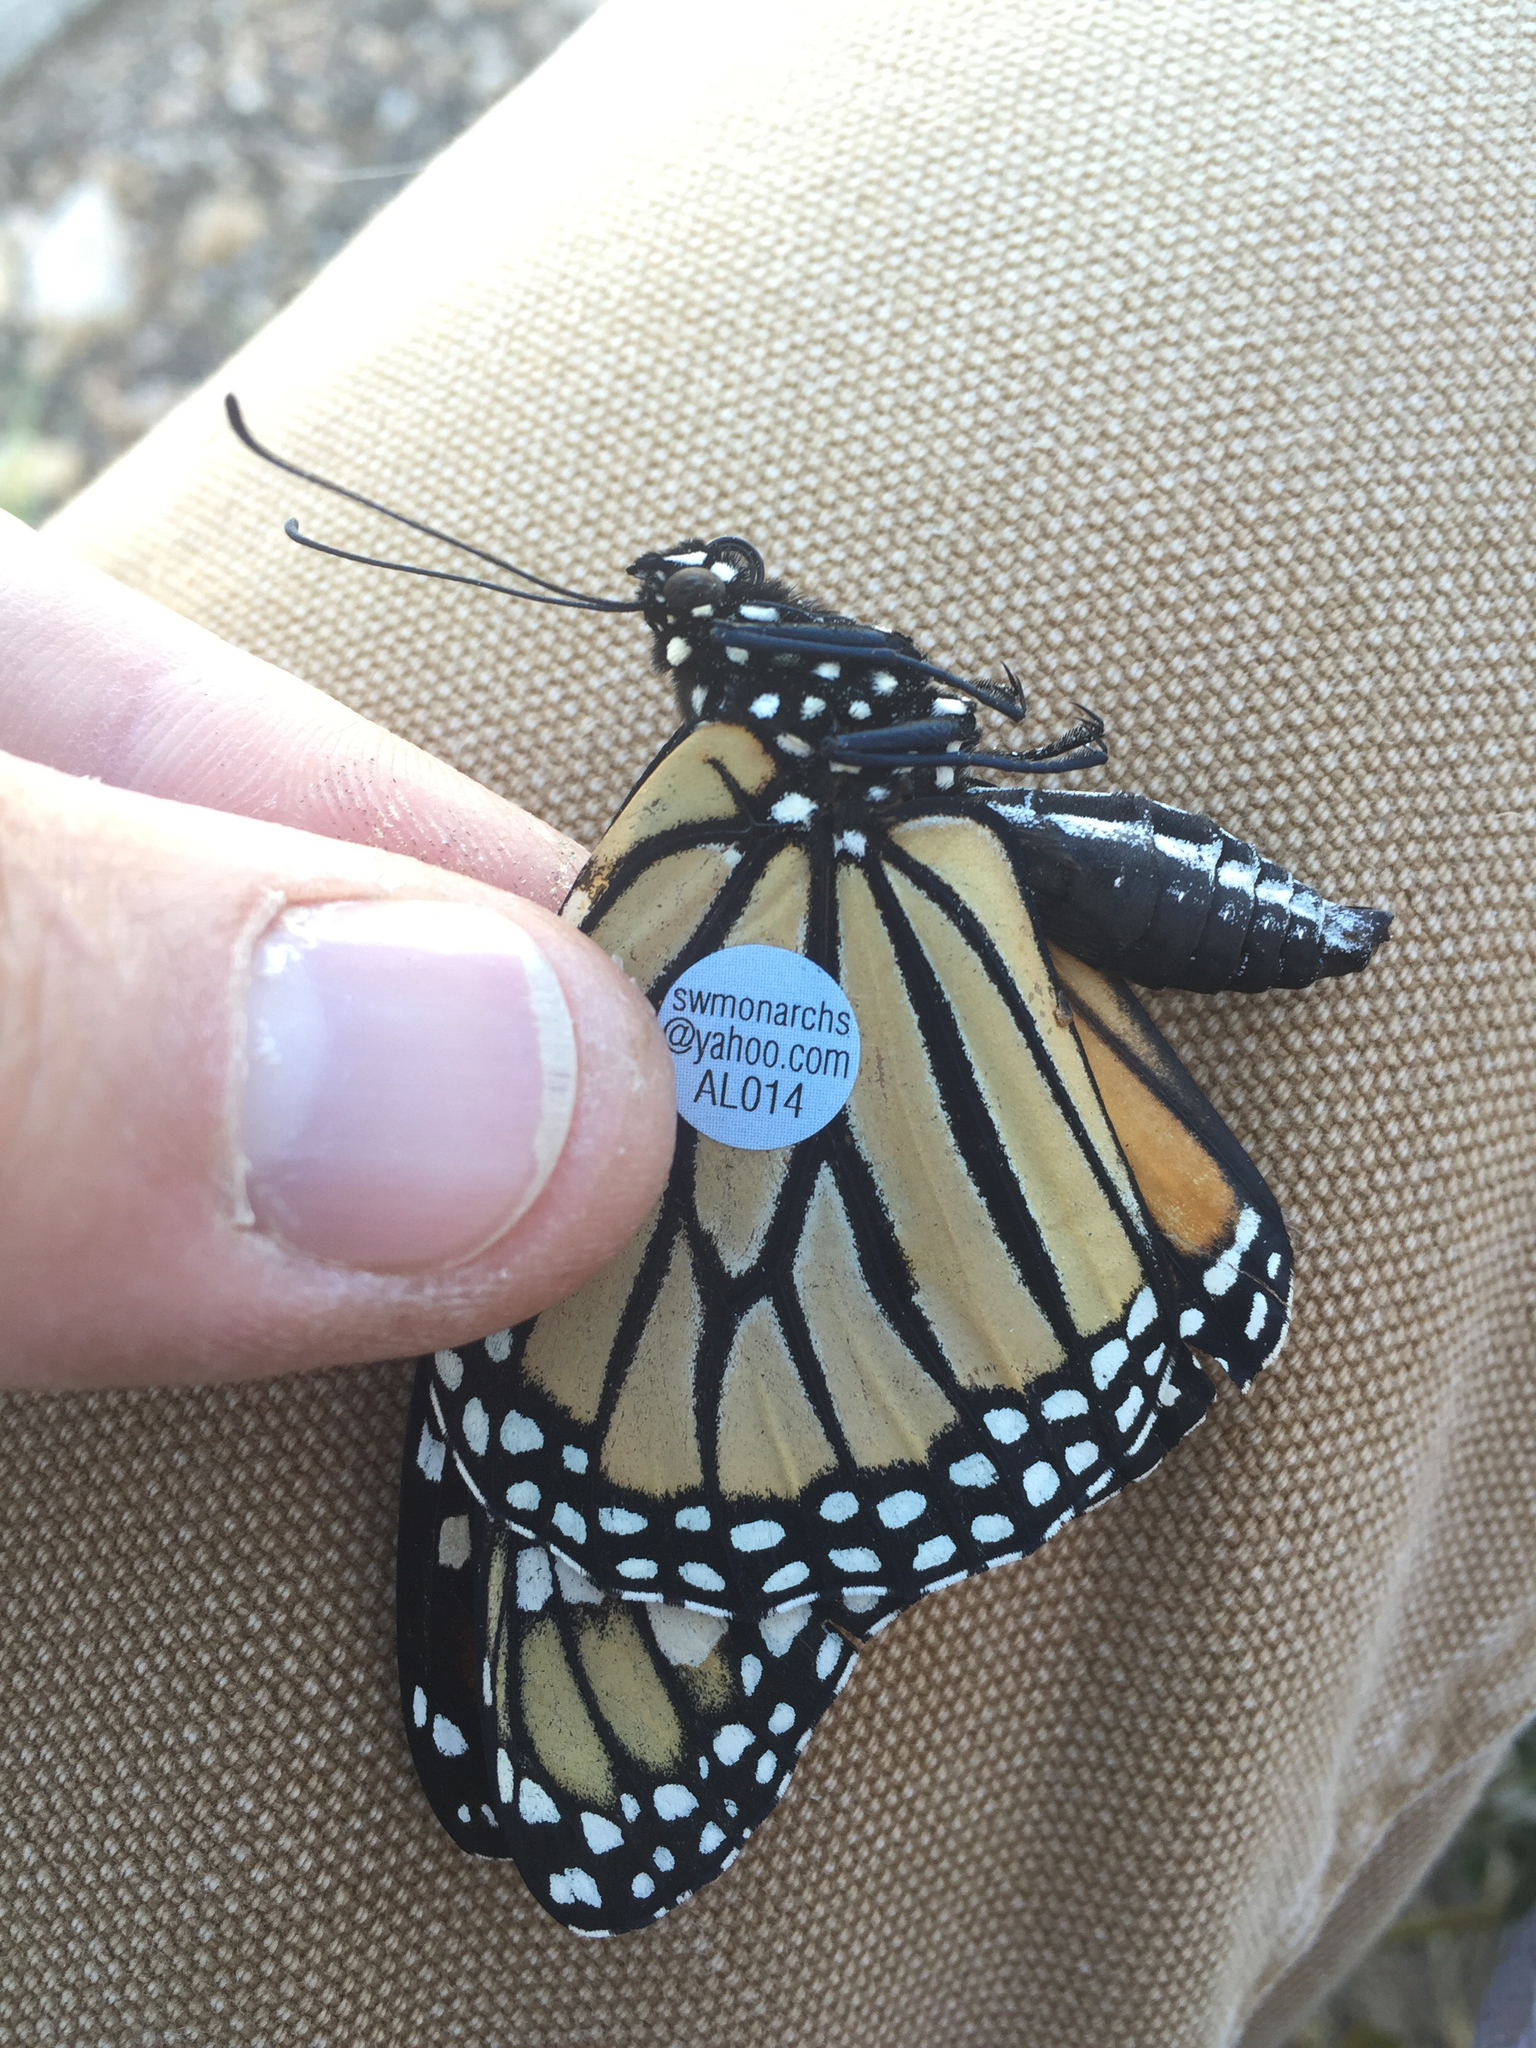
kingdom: Animalia
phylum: Arthropoda
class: Insecta
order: Lepidoptera
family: Nymphalidae
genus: Danaus
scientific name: Danaus plexippus
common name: Monarch
